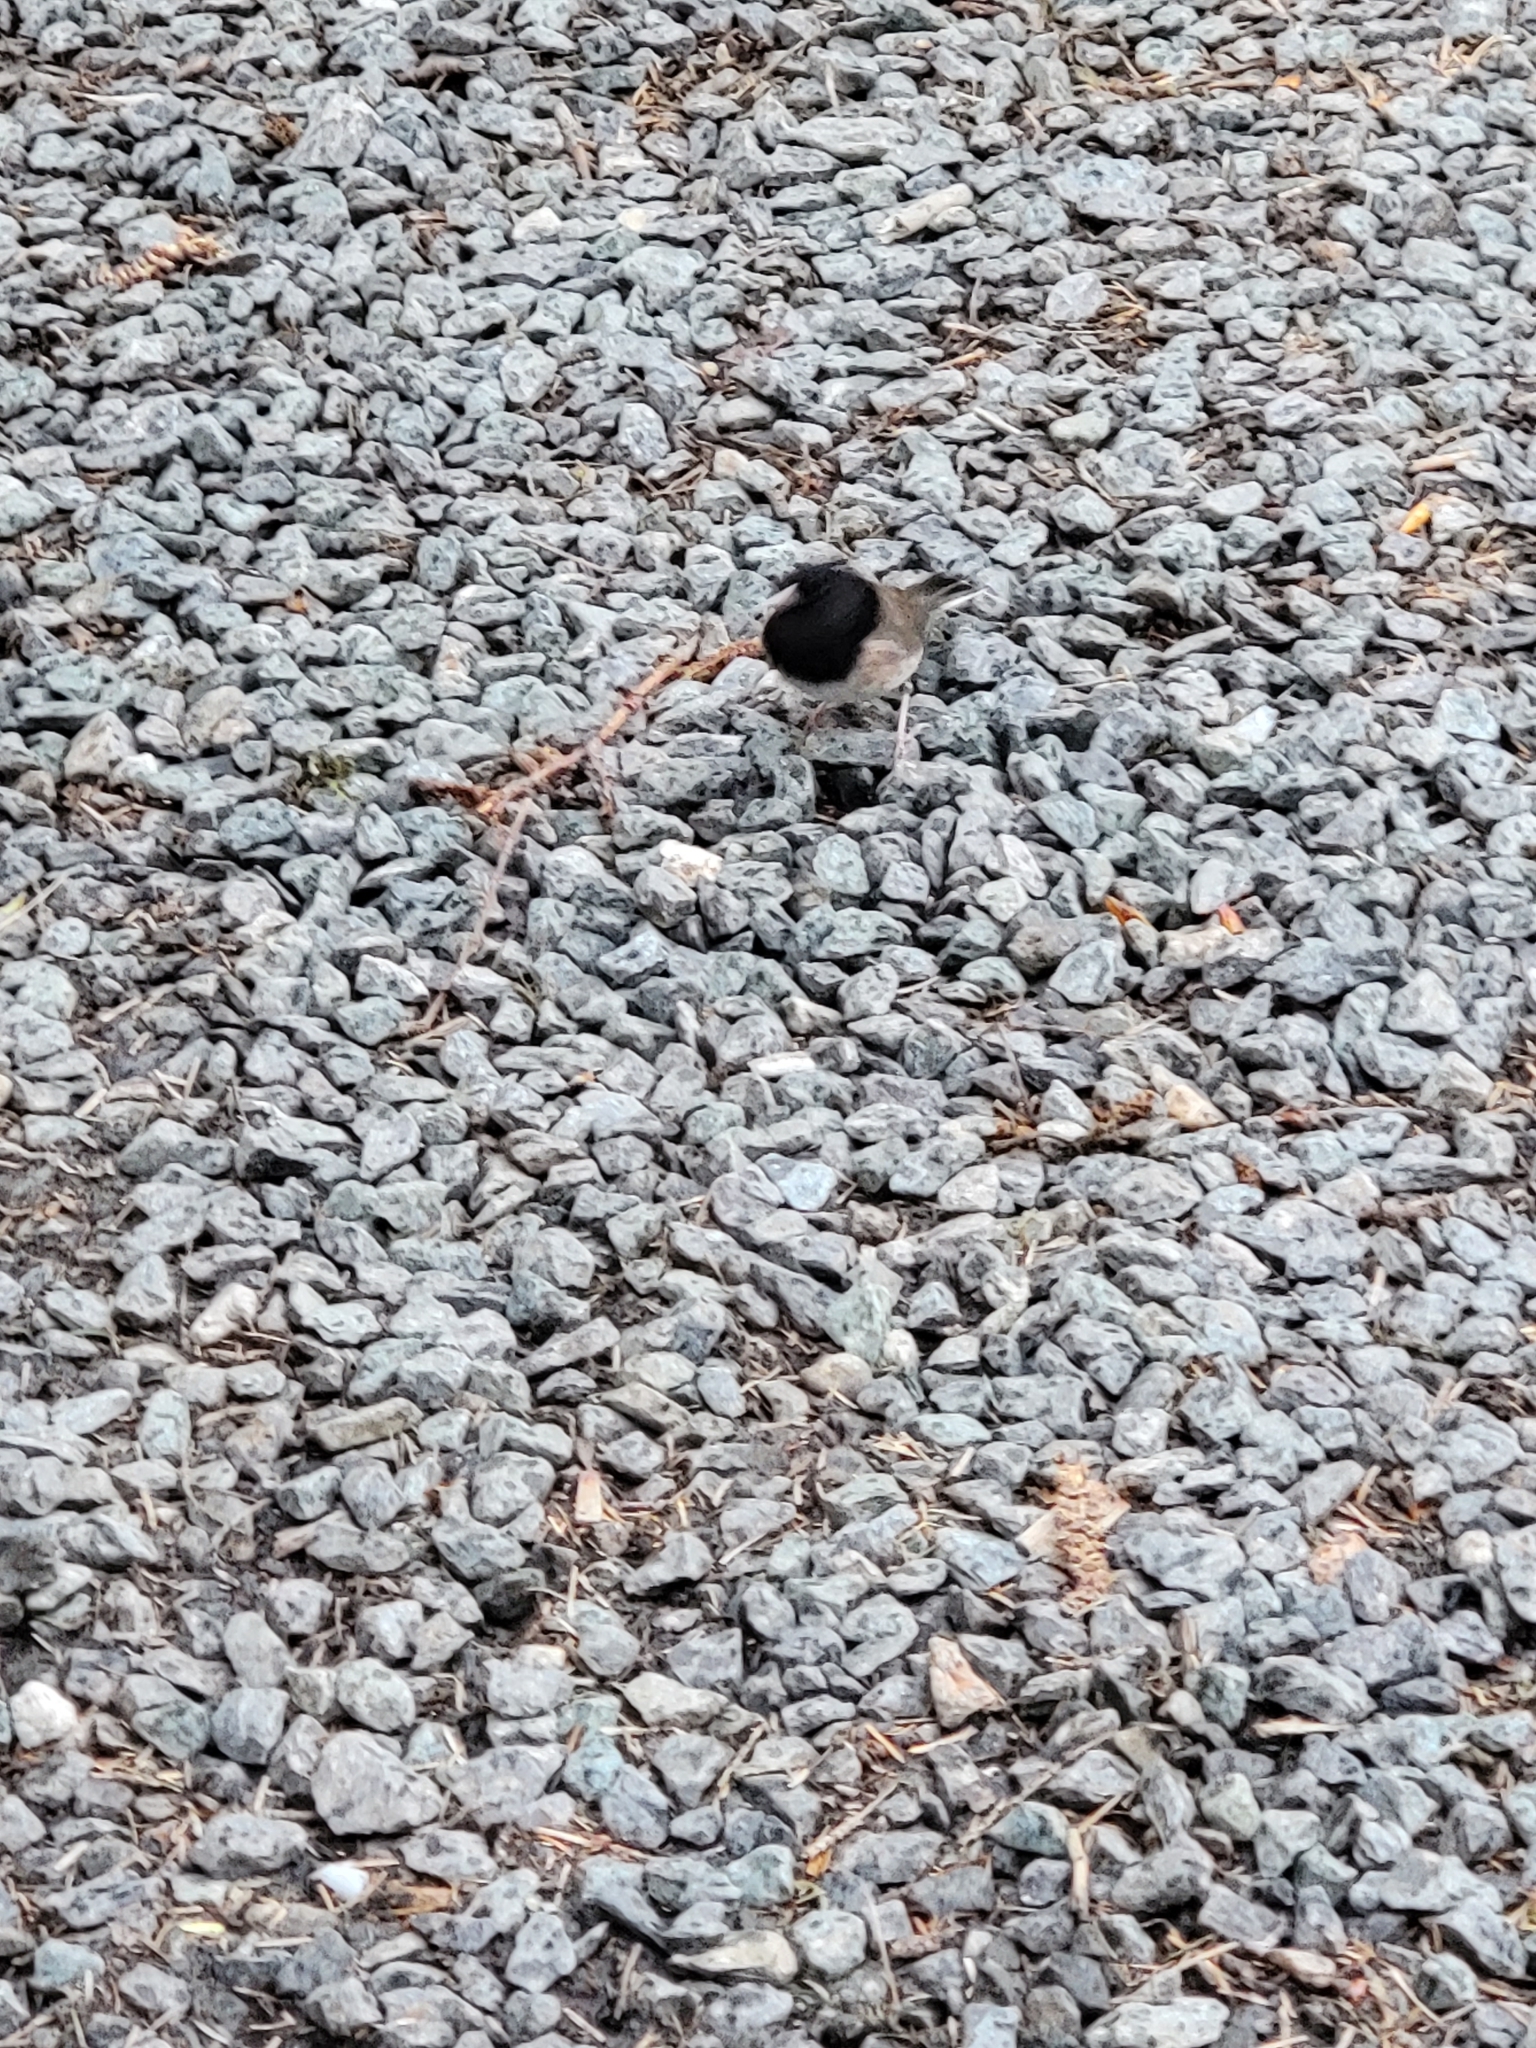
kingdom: Animalia
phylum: Chordata
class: Aves
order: Passeriformes
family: Passerellidae
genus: Junco
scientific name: Junco hyemalis
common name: Dark-eyed junco
